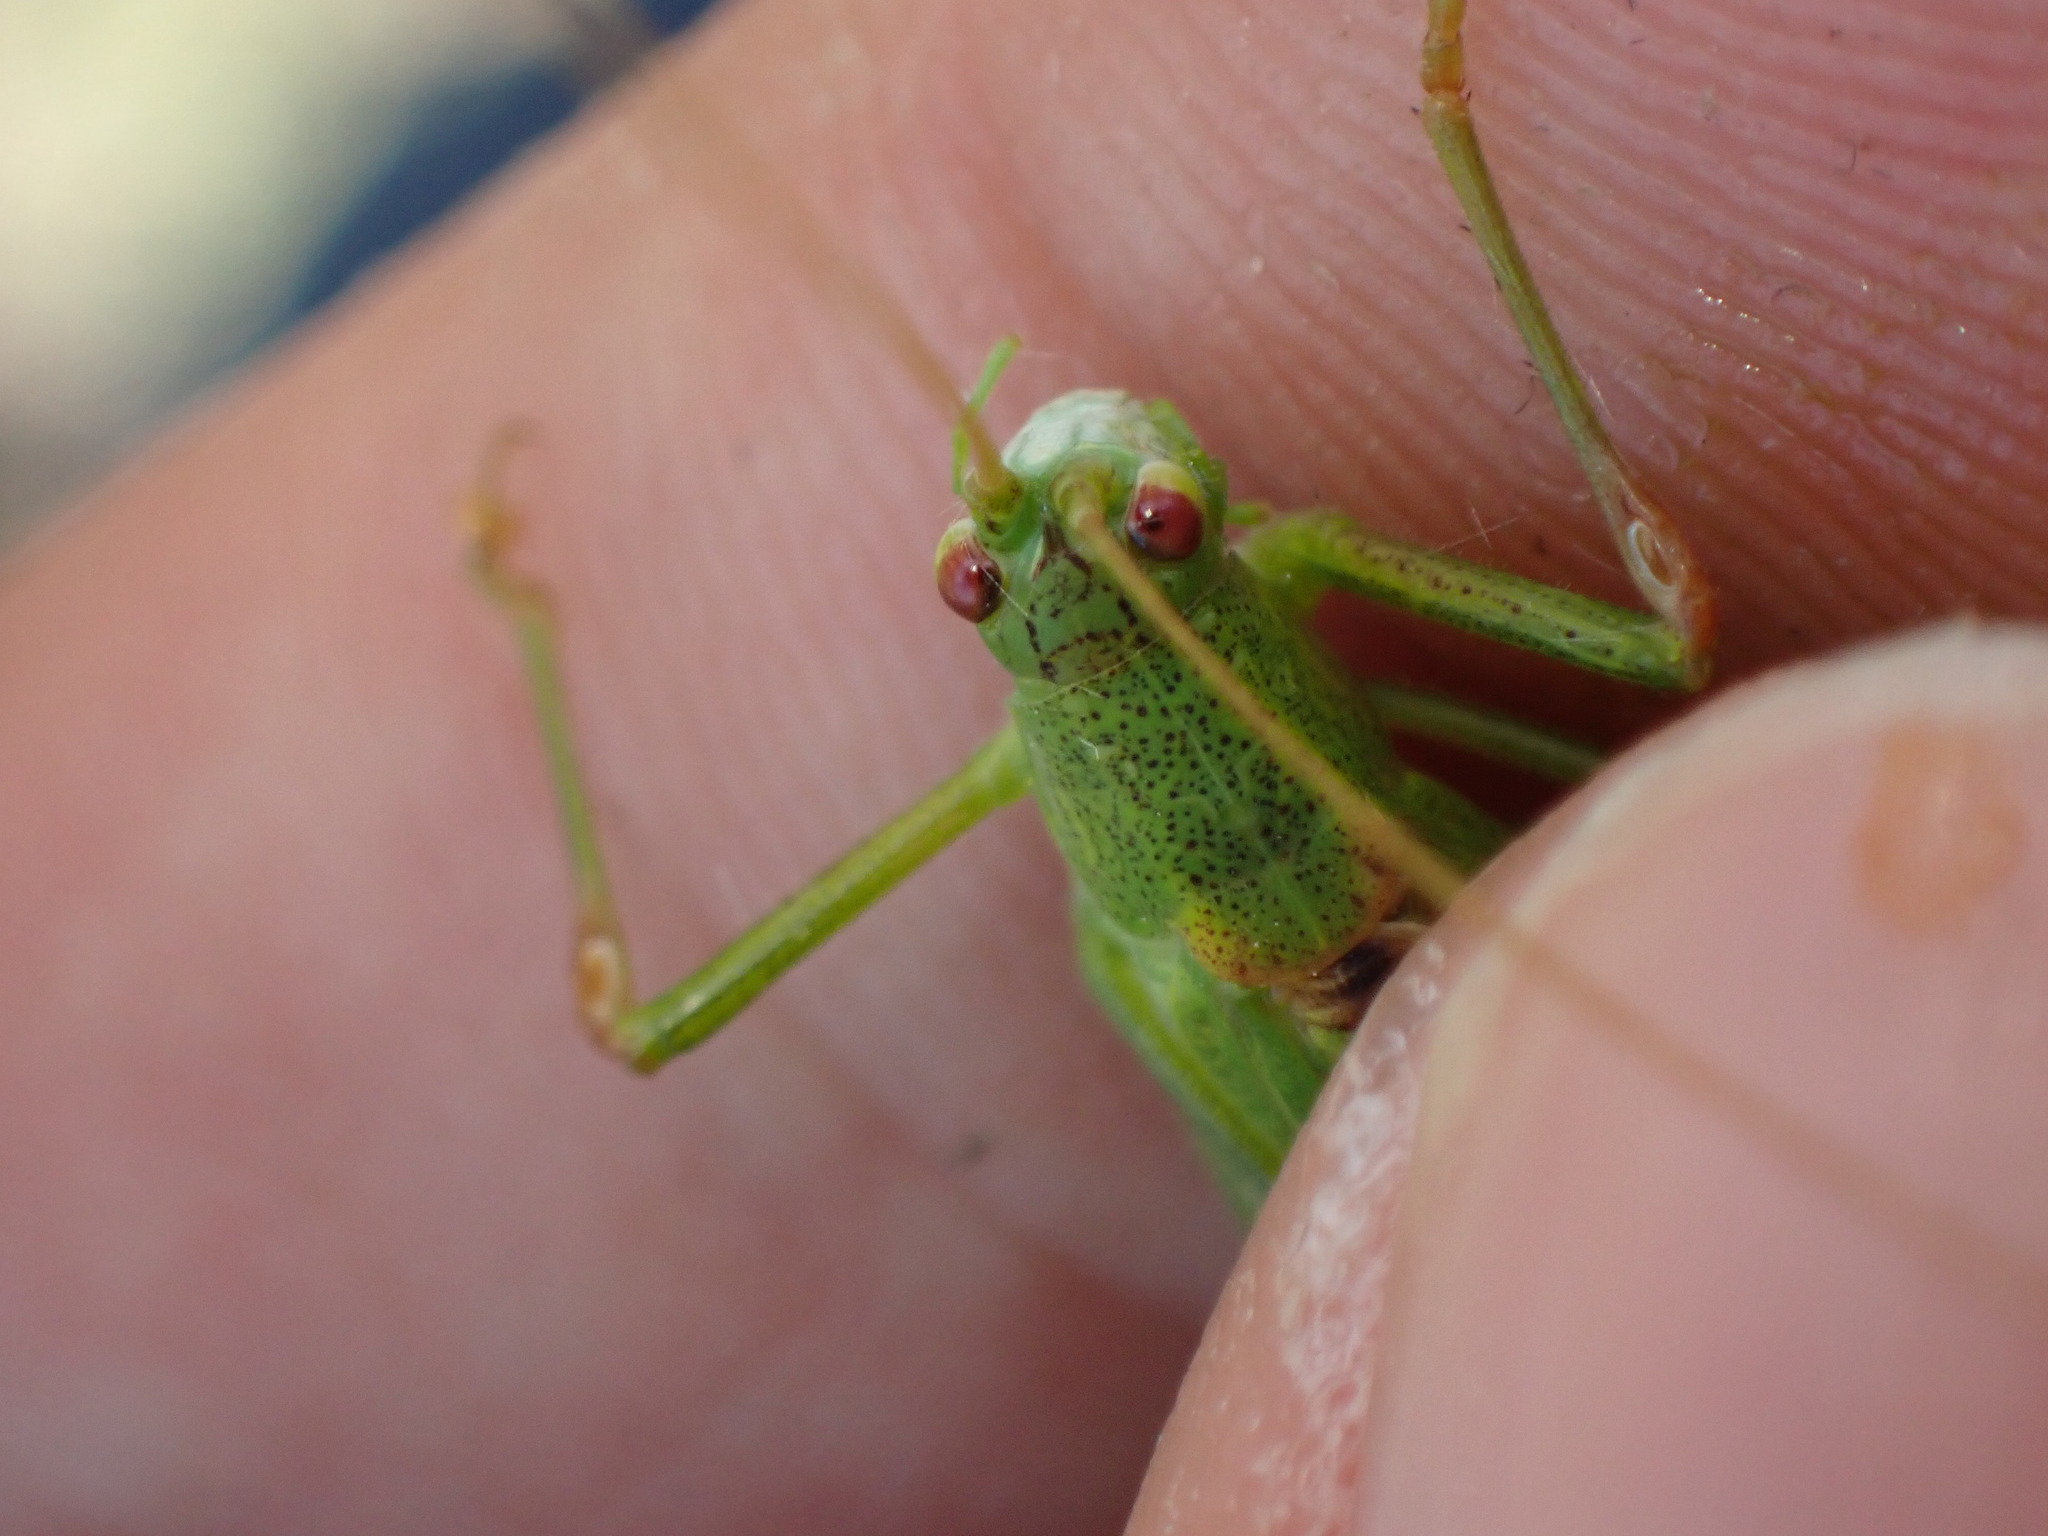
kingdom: Animalia
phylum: Arthropoda
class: Insecta
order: Orthoptera
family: Tettigoniidae
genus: Phaneroptera
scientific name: Phaneroptera falcata
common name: Sickle-bearing bush-cricket
